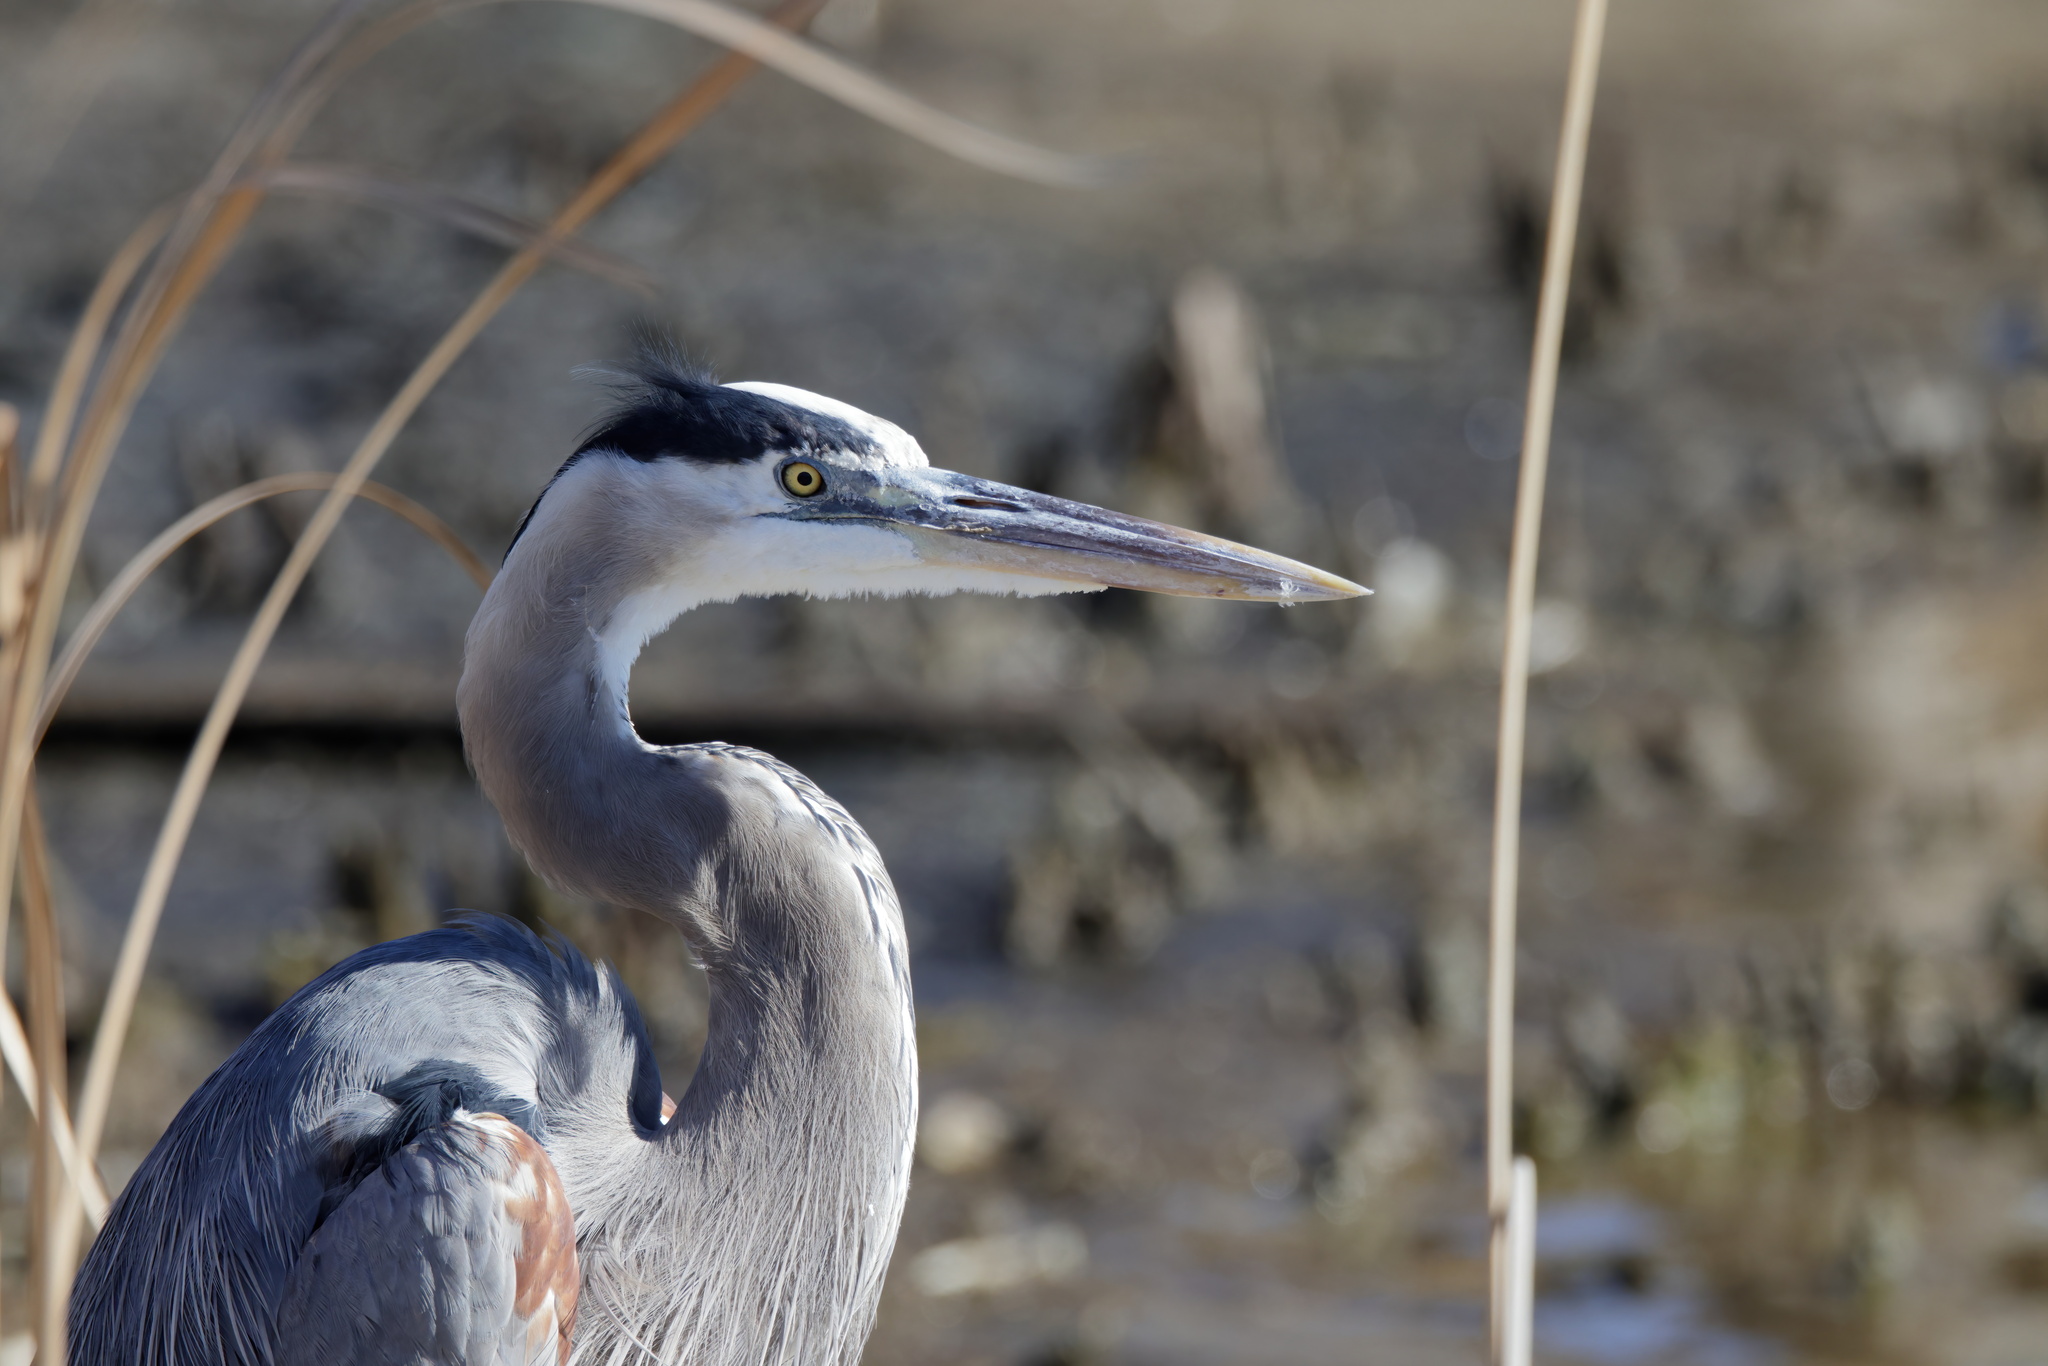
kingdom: Animalia
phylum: Chordata
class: Aves
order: Pelecaniformes
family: Ardeidae
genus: Ardea
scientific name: Ardea herodias
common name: Great blue heron
